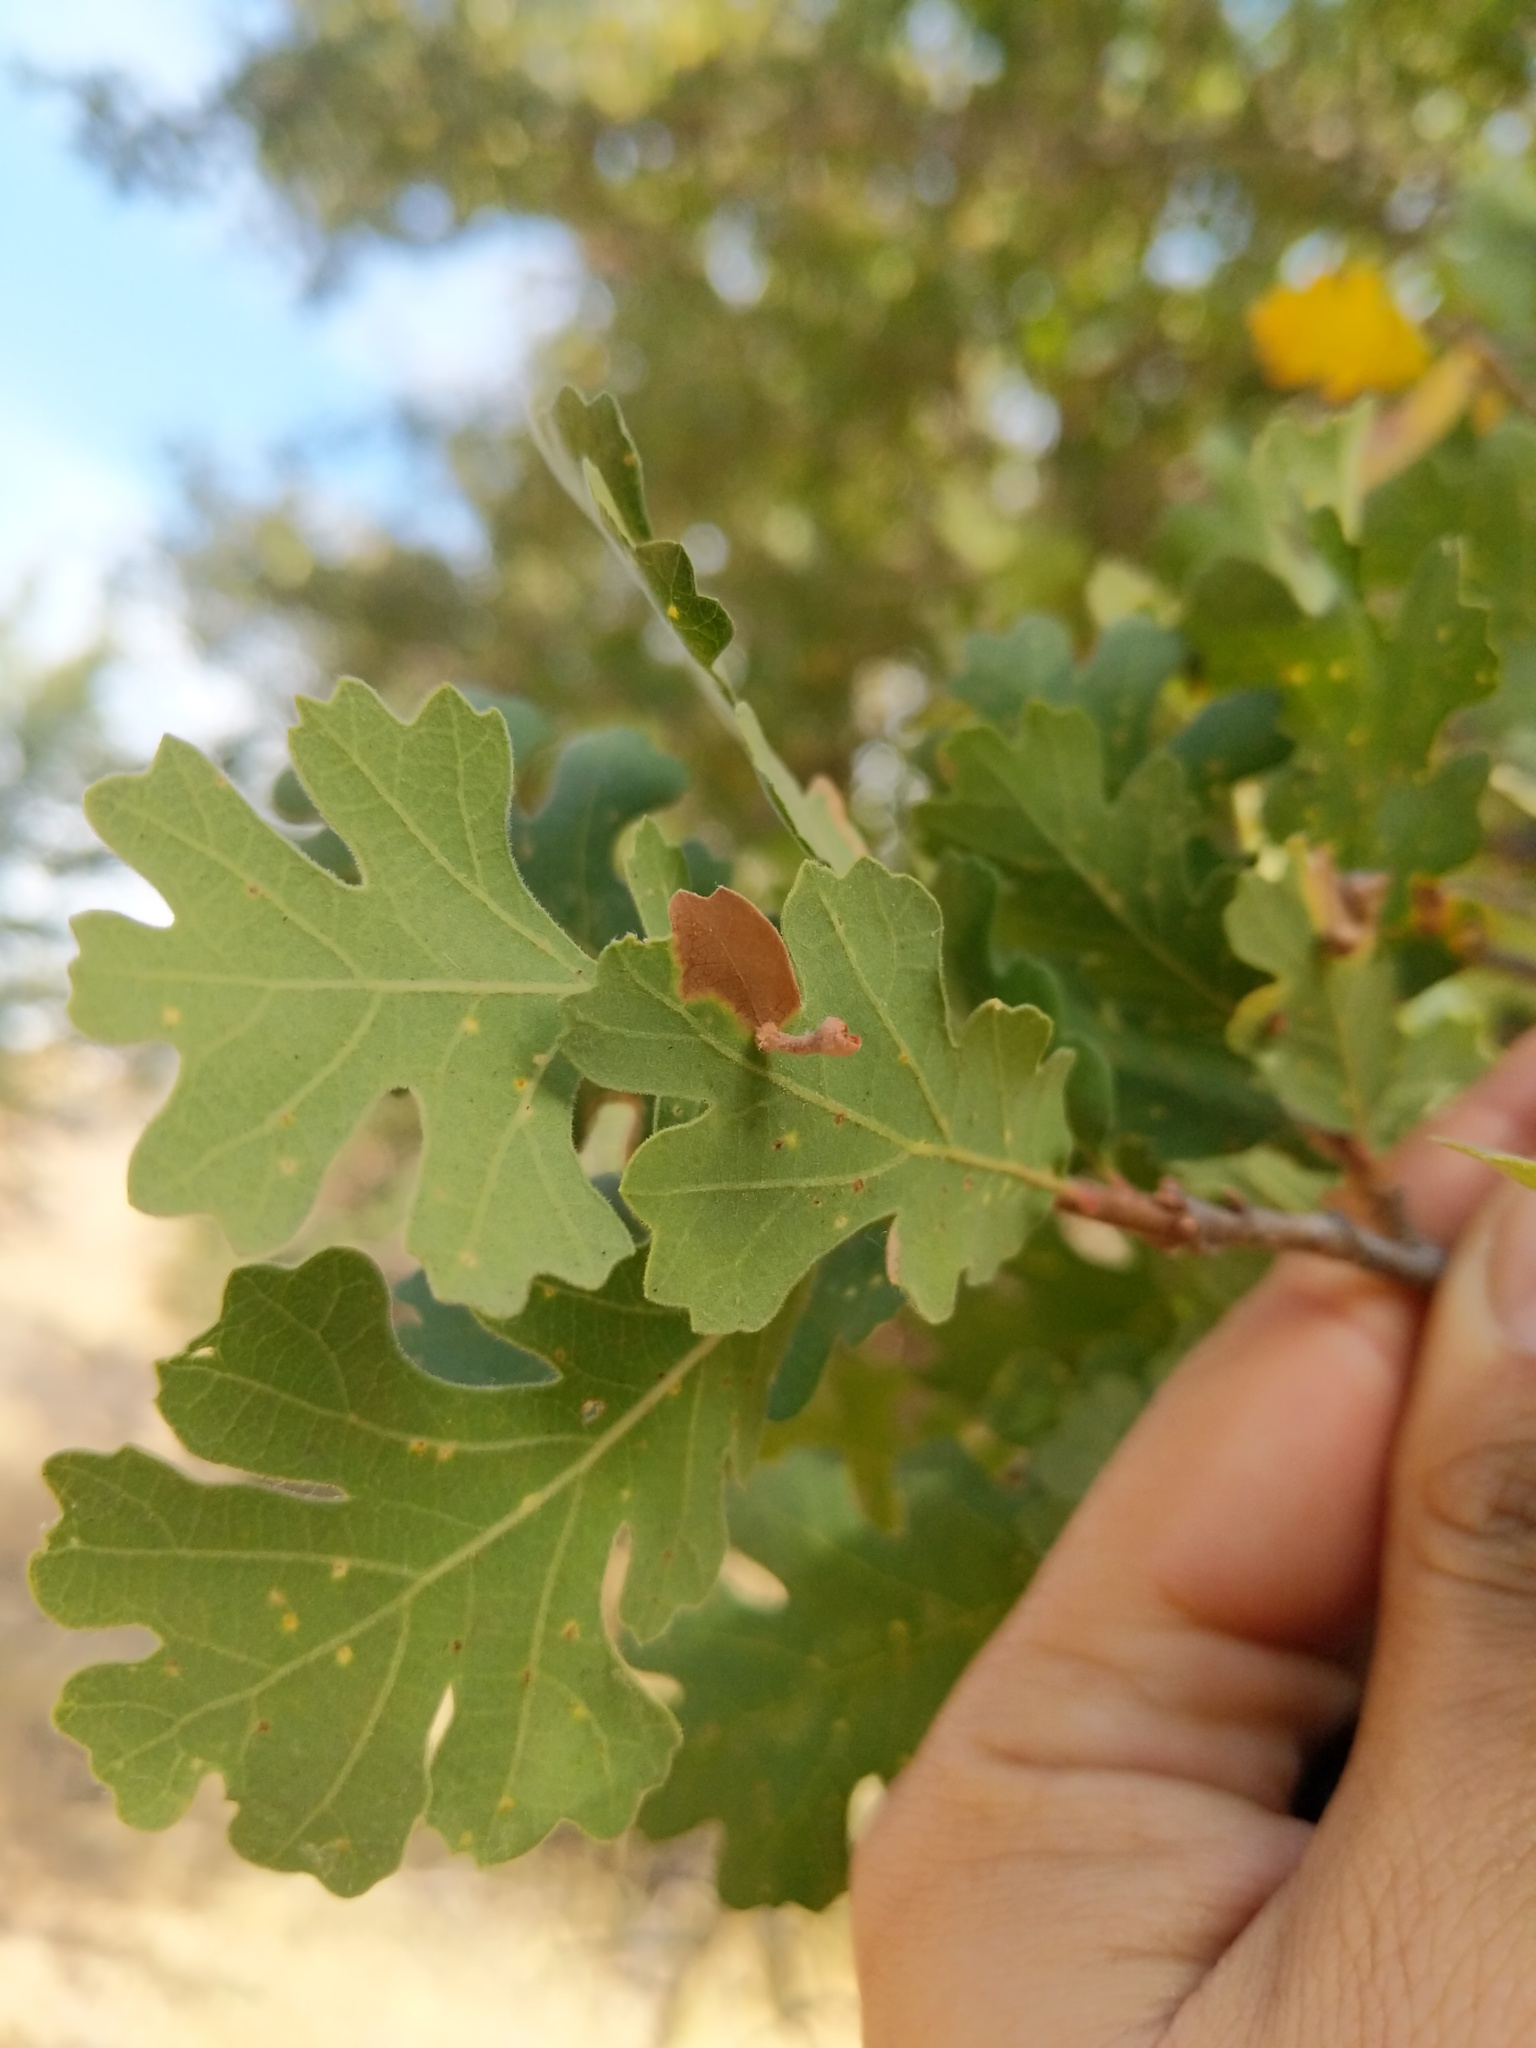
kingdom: Animalia
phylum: Arthropoda
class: Insecta
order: Hymenoptera
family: Cynipidae
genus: Atrusca
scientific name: Atrusca
